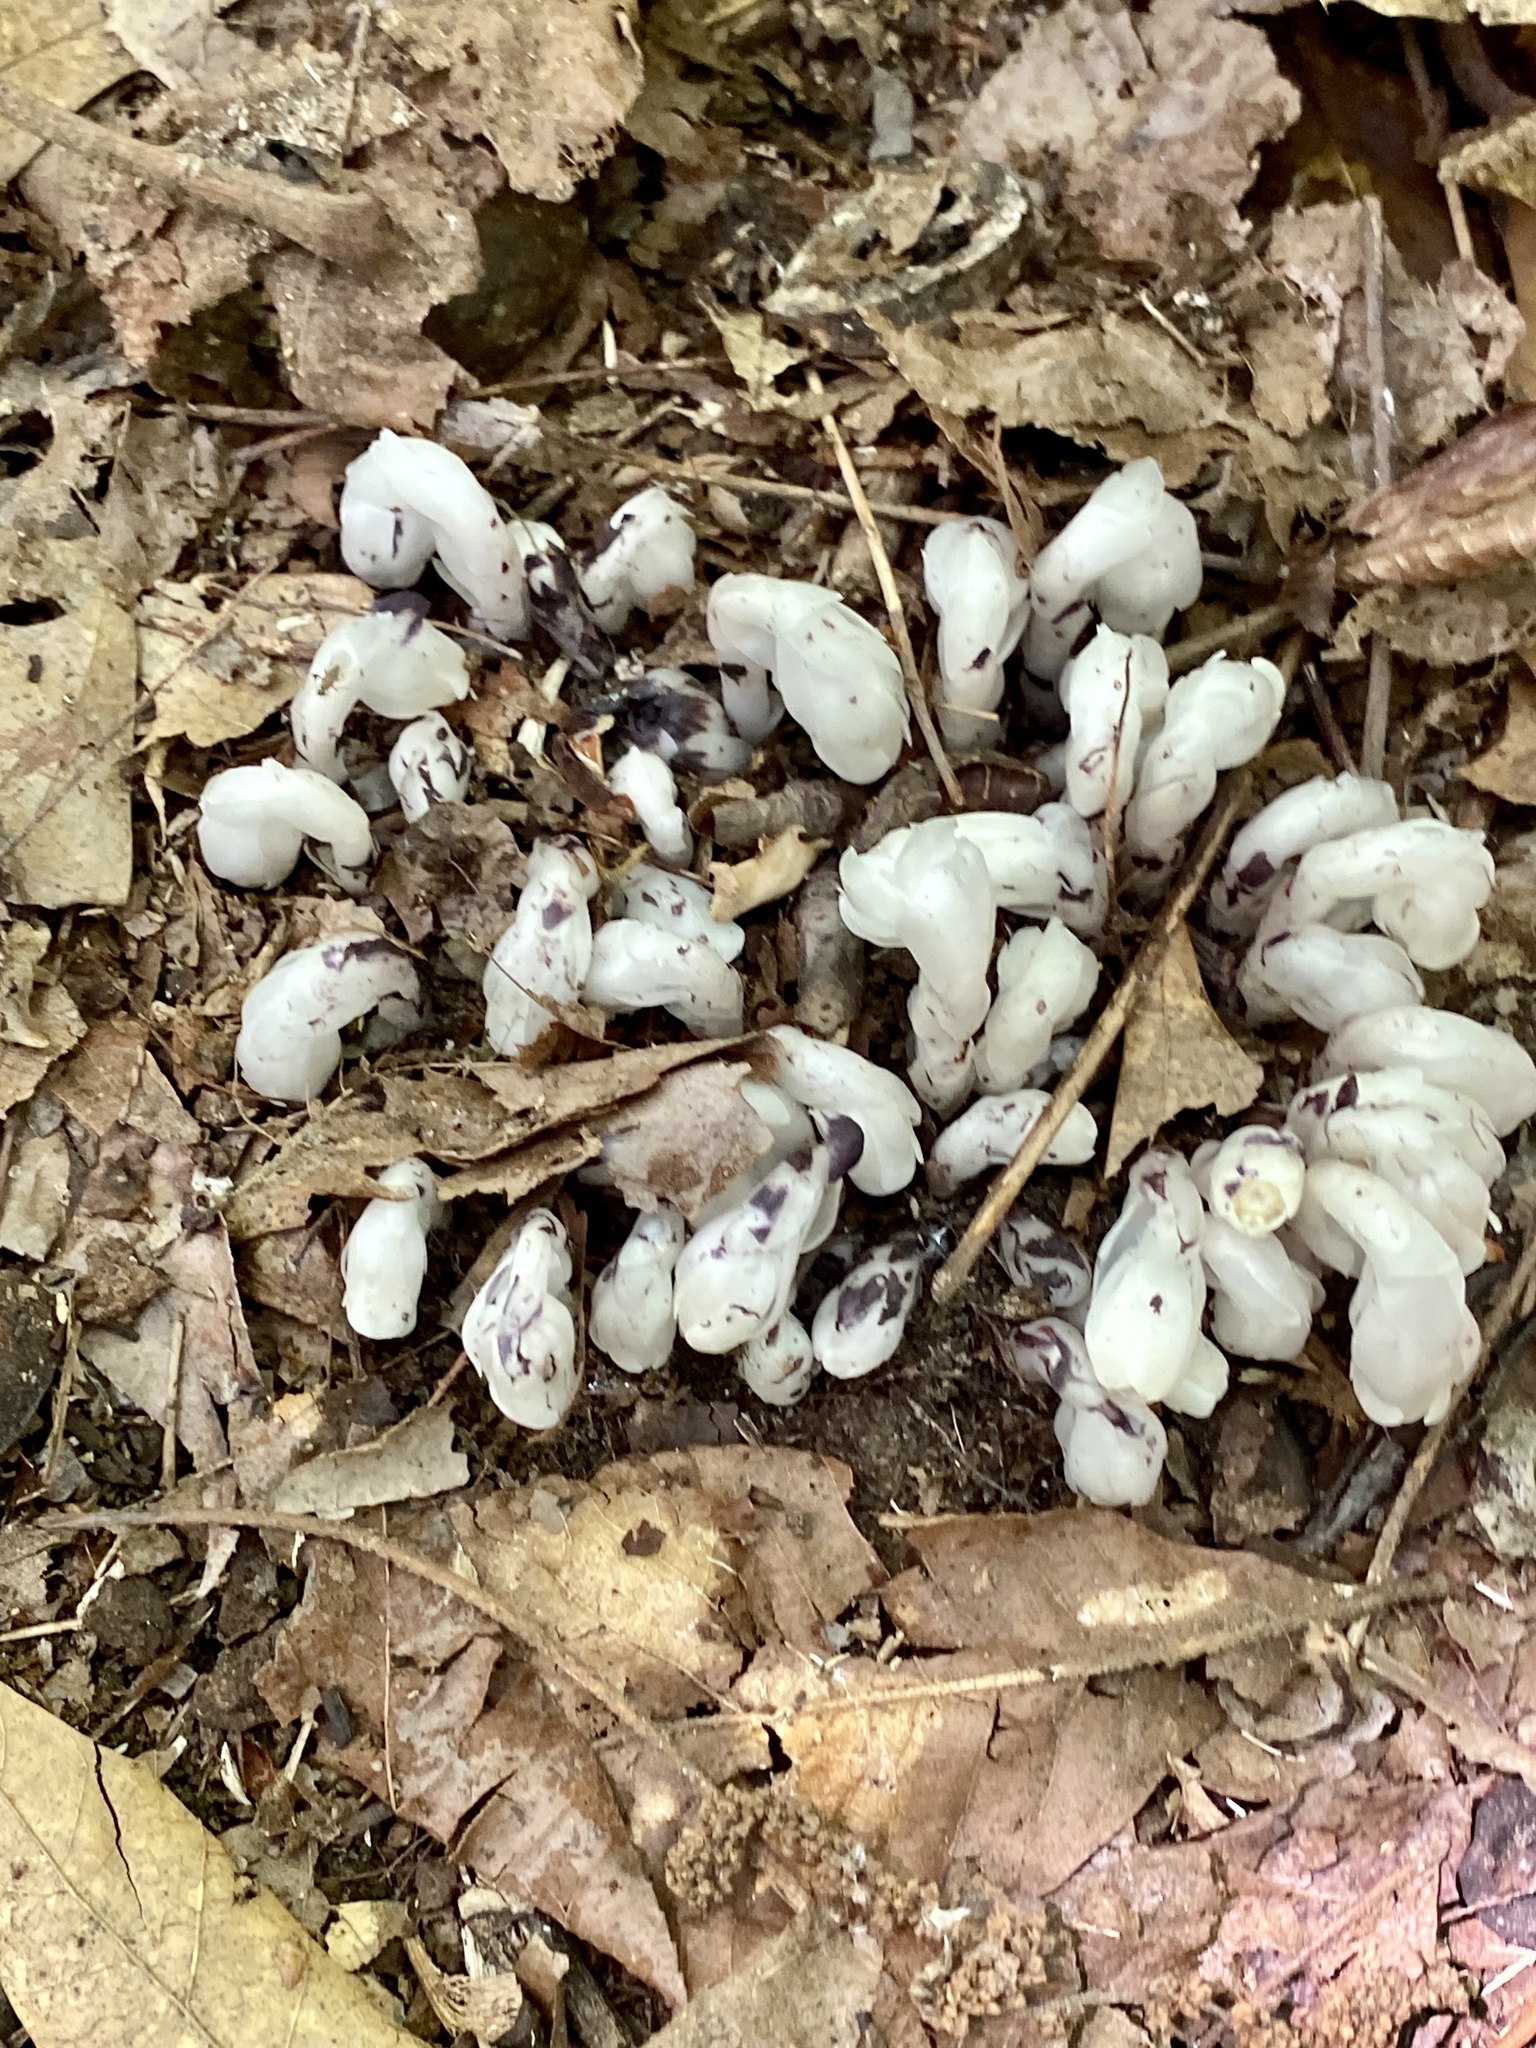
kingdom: Plantae
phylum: Tracheophyta
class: Magnoliopsida
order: Ericales
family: Ericaceae
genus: Monotropa
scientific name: Monotropa uniflora
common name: Convulsion root
